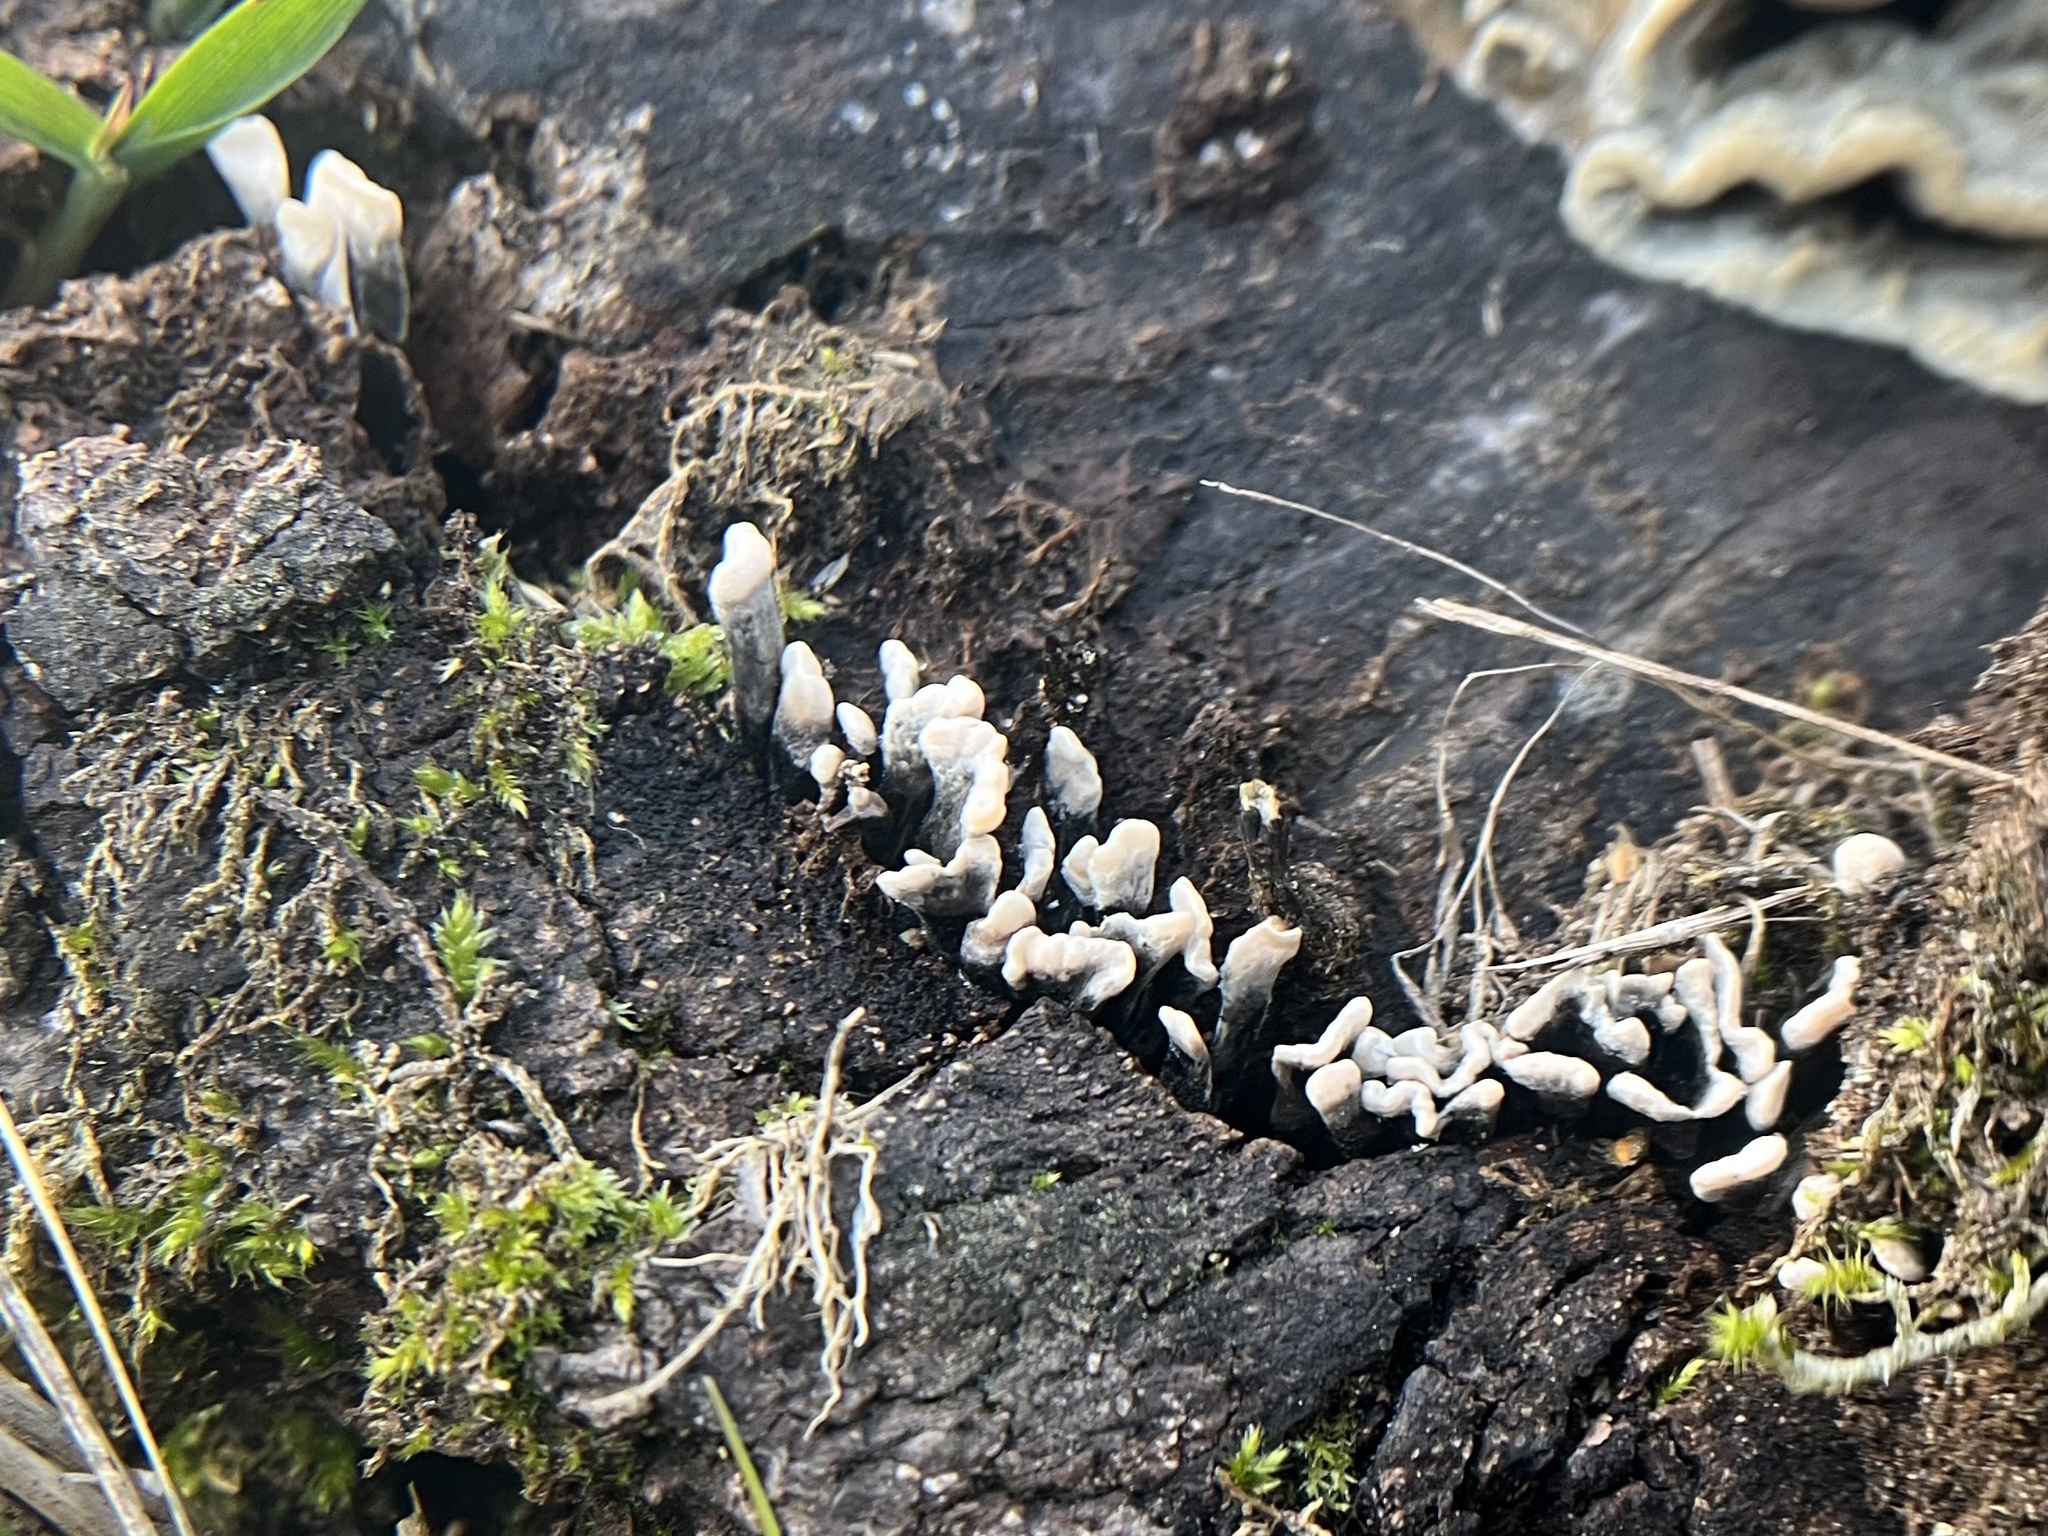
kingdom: Fungi
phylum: Ascomycota
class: Sordariomycetes
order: Xylariales
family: Xylariaceae
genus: Xylaria
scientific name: Xylaria hypoxylon
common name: Candle-snuff fungus
